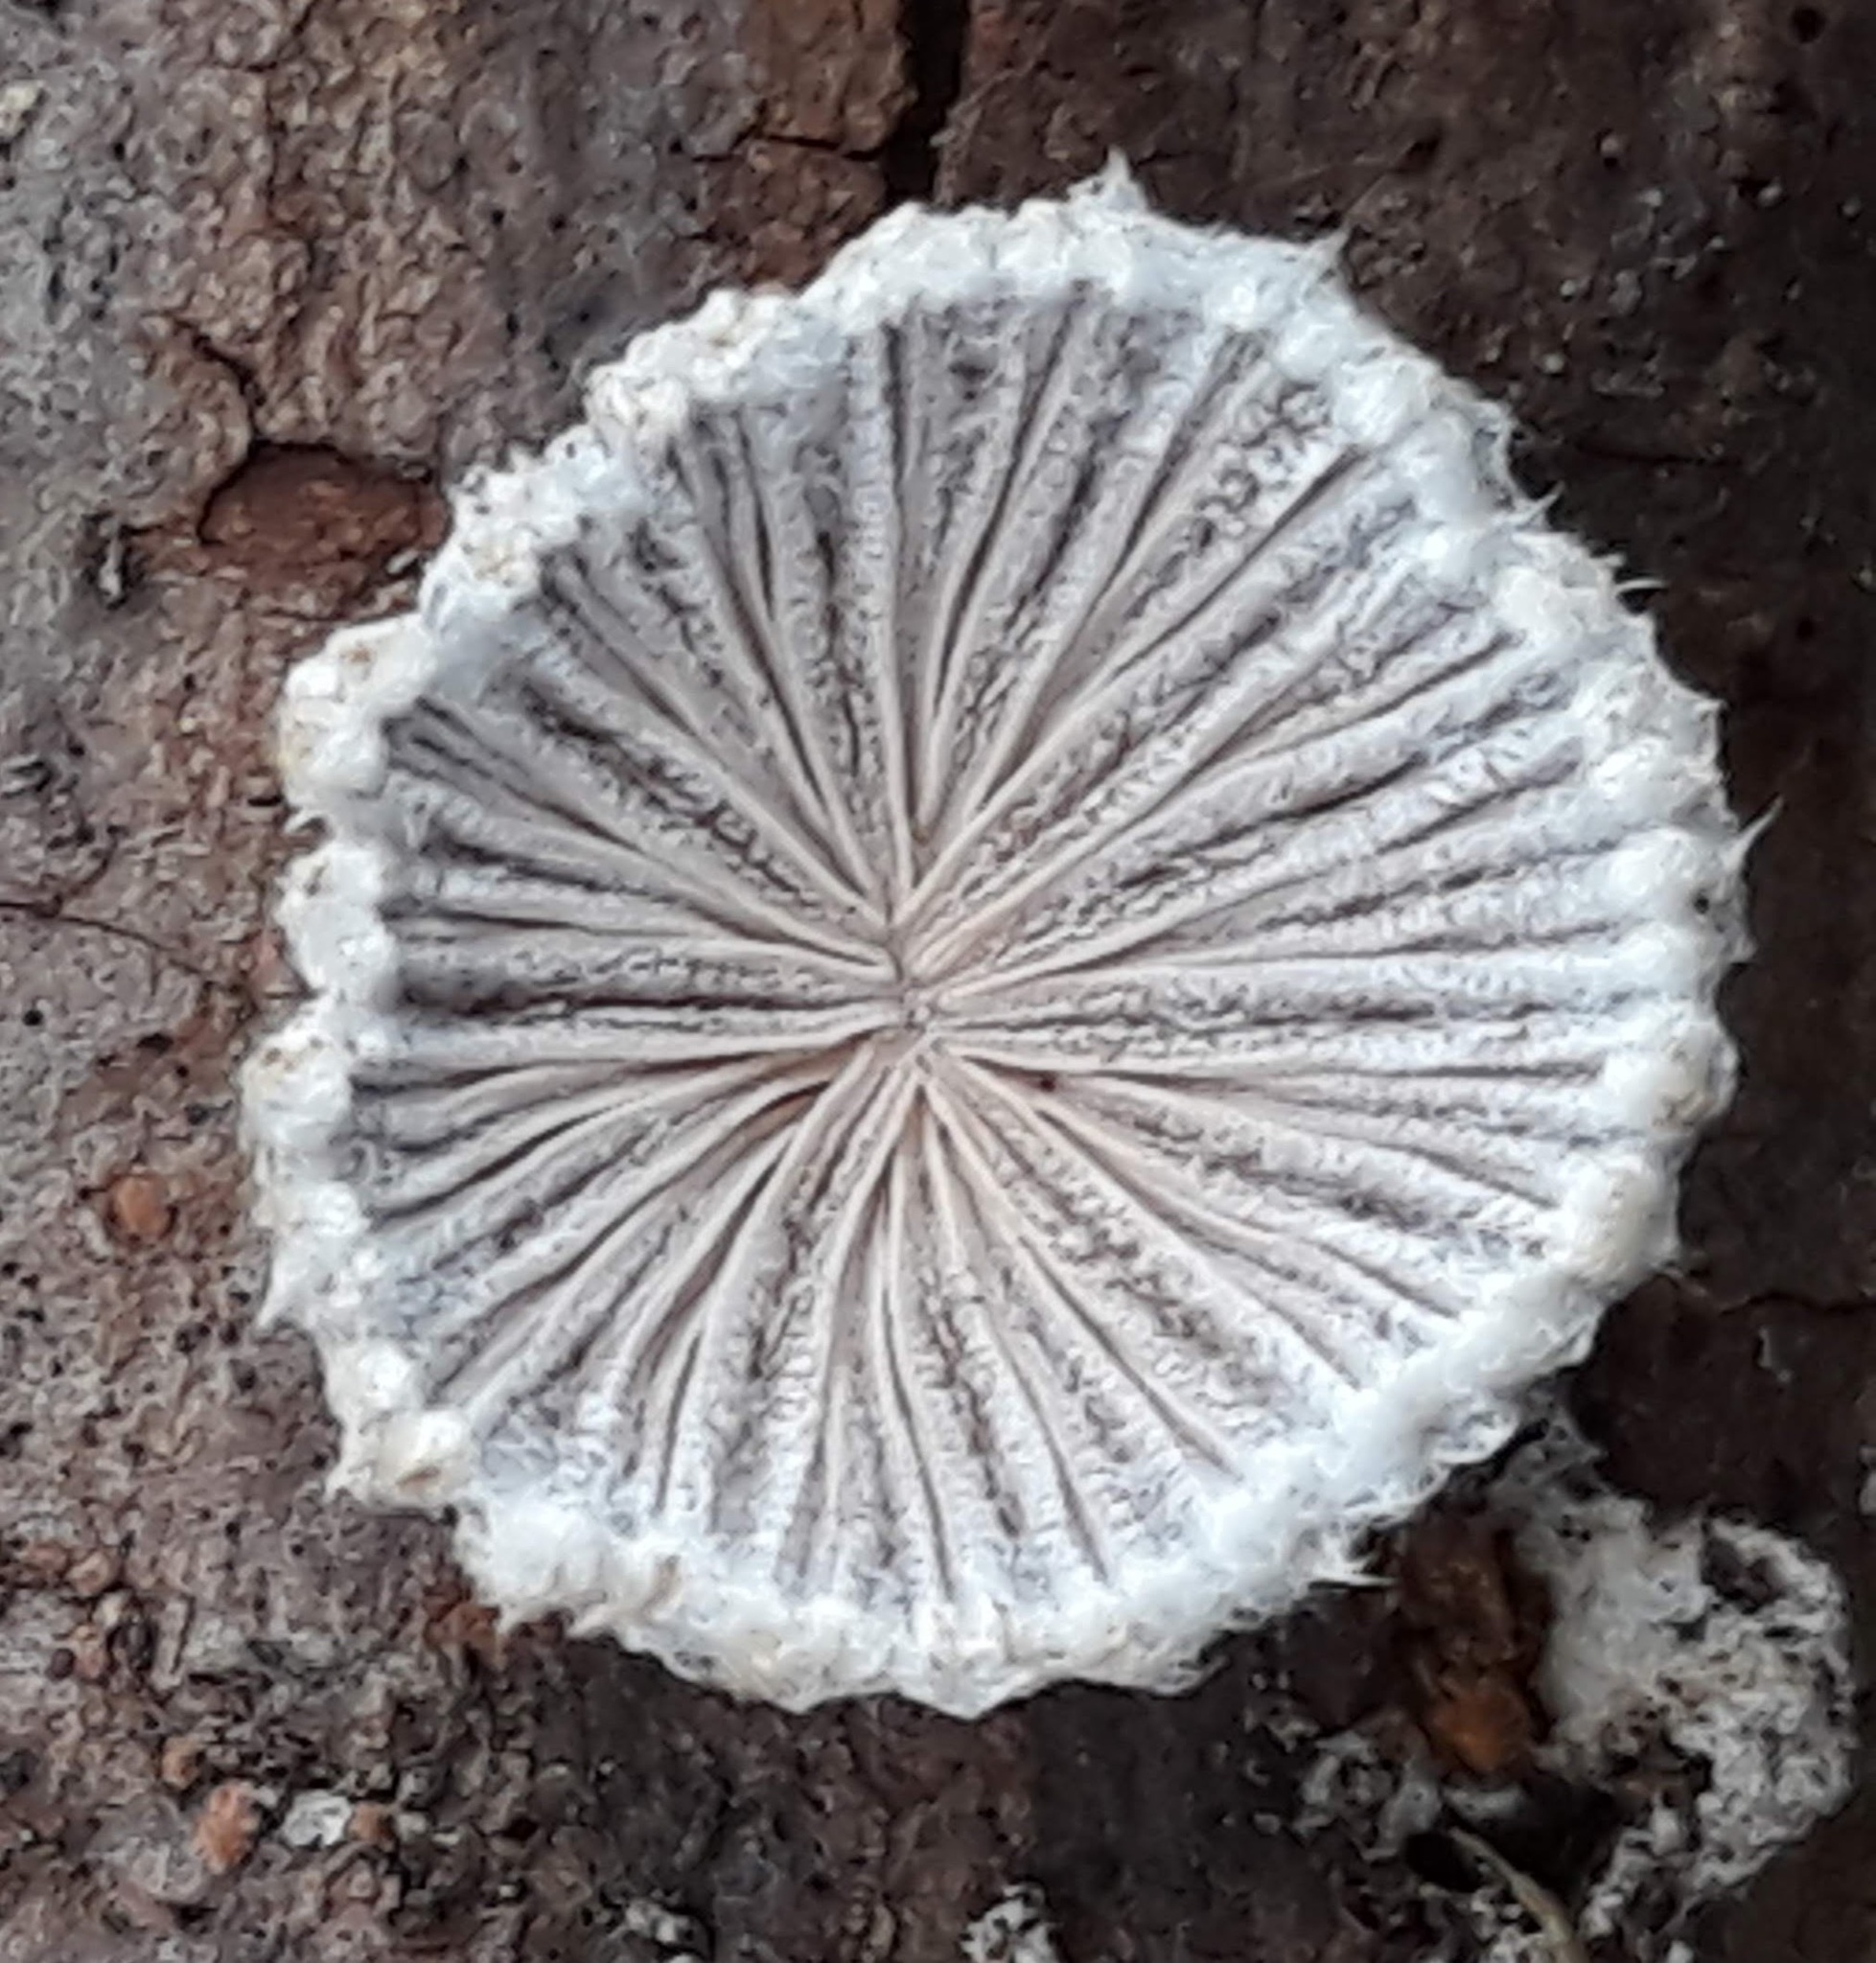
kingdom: Fungi
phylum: Basidiomycota
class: Agaricomycetes
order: Agaricales
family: Schizophyllaceae
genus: Schizophyllum
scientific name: Schizophyllum commune
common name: Common porecrust
